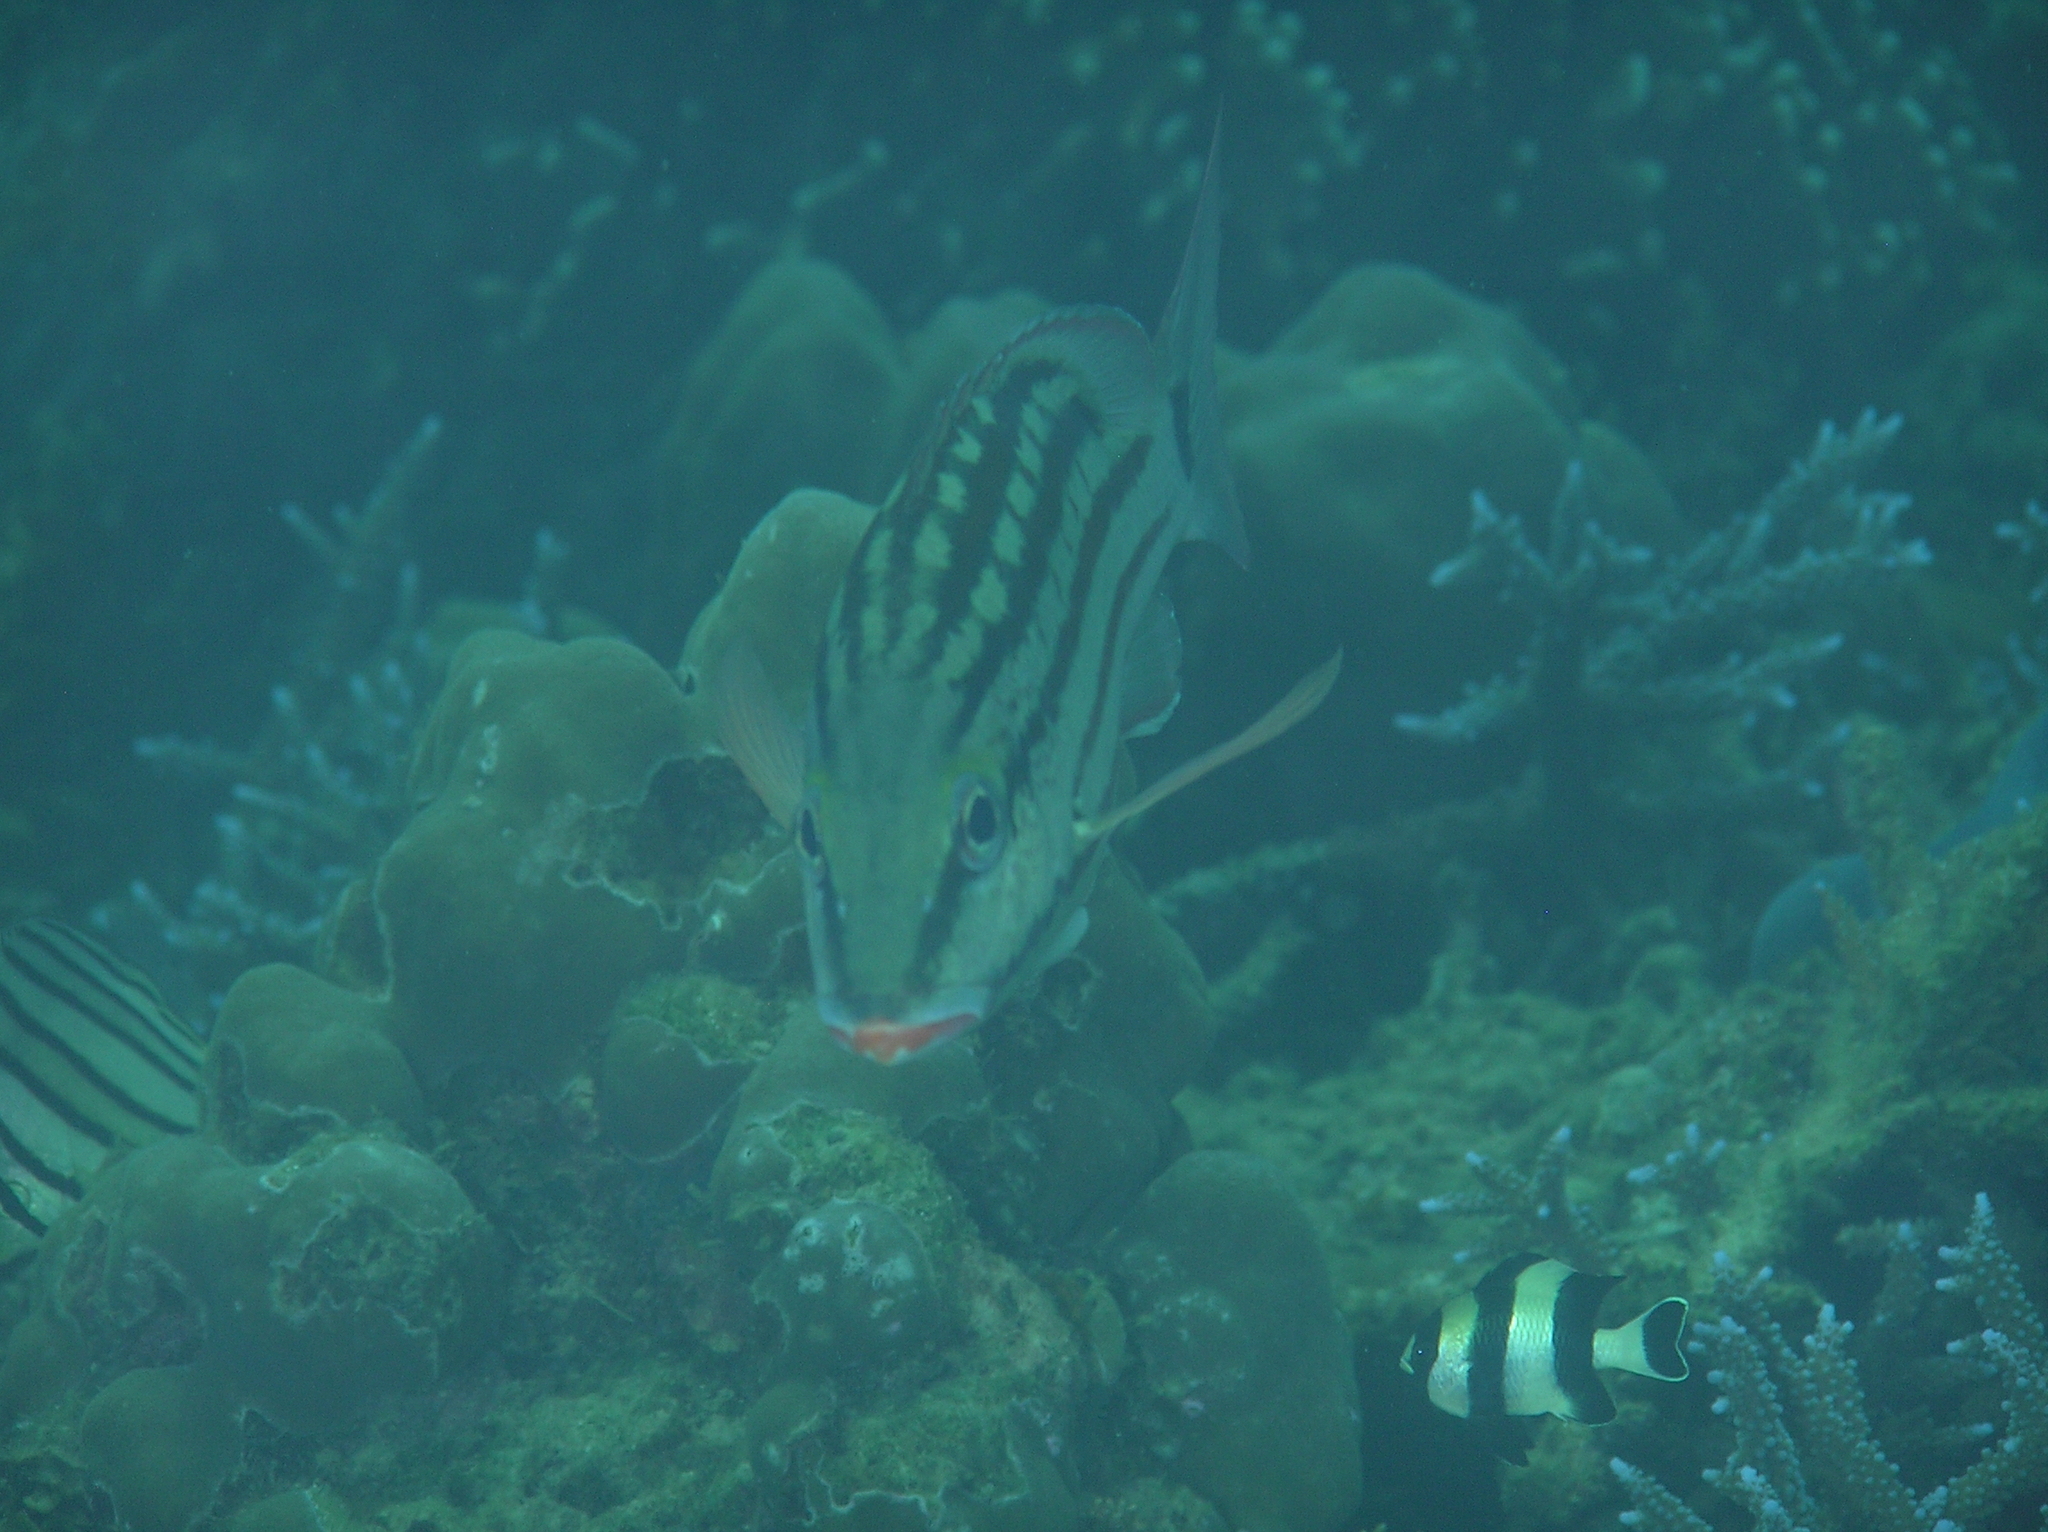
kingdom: Animalia
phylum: Chordata
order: Perciformes
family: Pomacentridae
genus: Dascyllus
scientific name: Dascyllus melanurus
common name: Black-tail dascyllus
